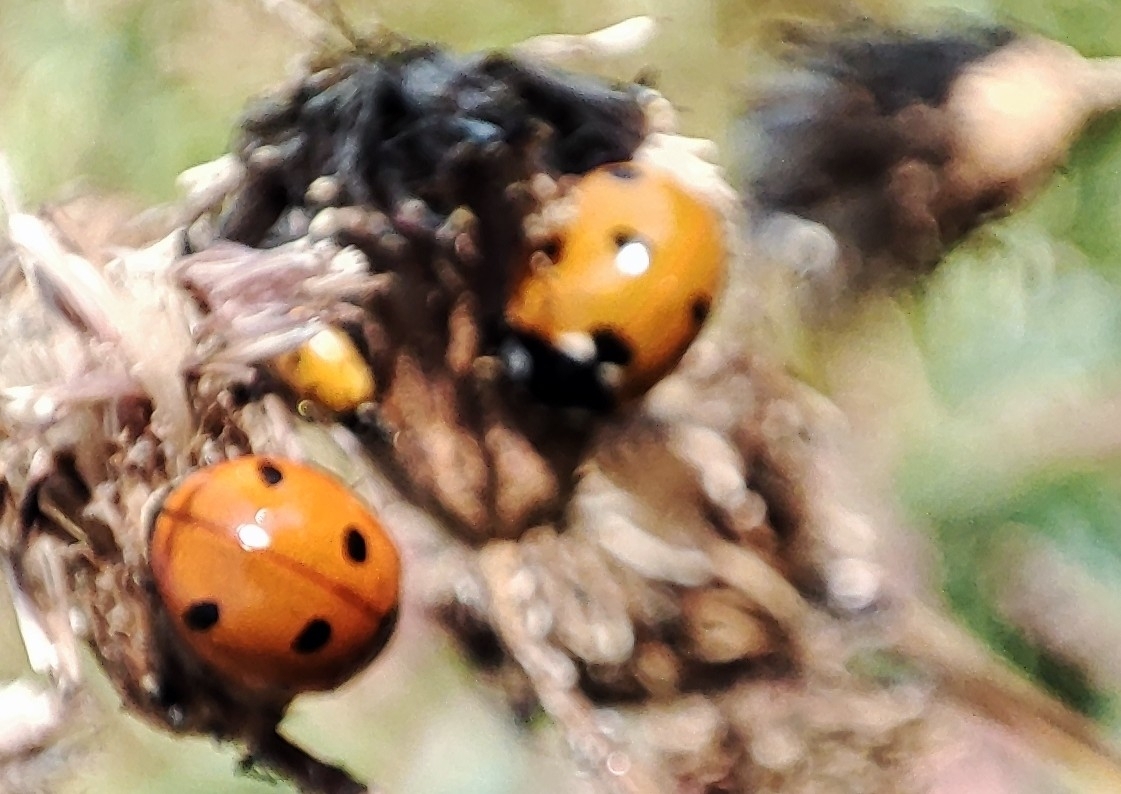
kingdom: Animalia
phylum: Arthropoda
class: Insecta
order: Coleoptera
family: Coccinellidae
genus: Coccinella
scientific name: Coccinella septempunctata
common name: Sevenspotted lady beetle
